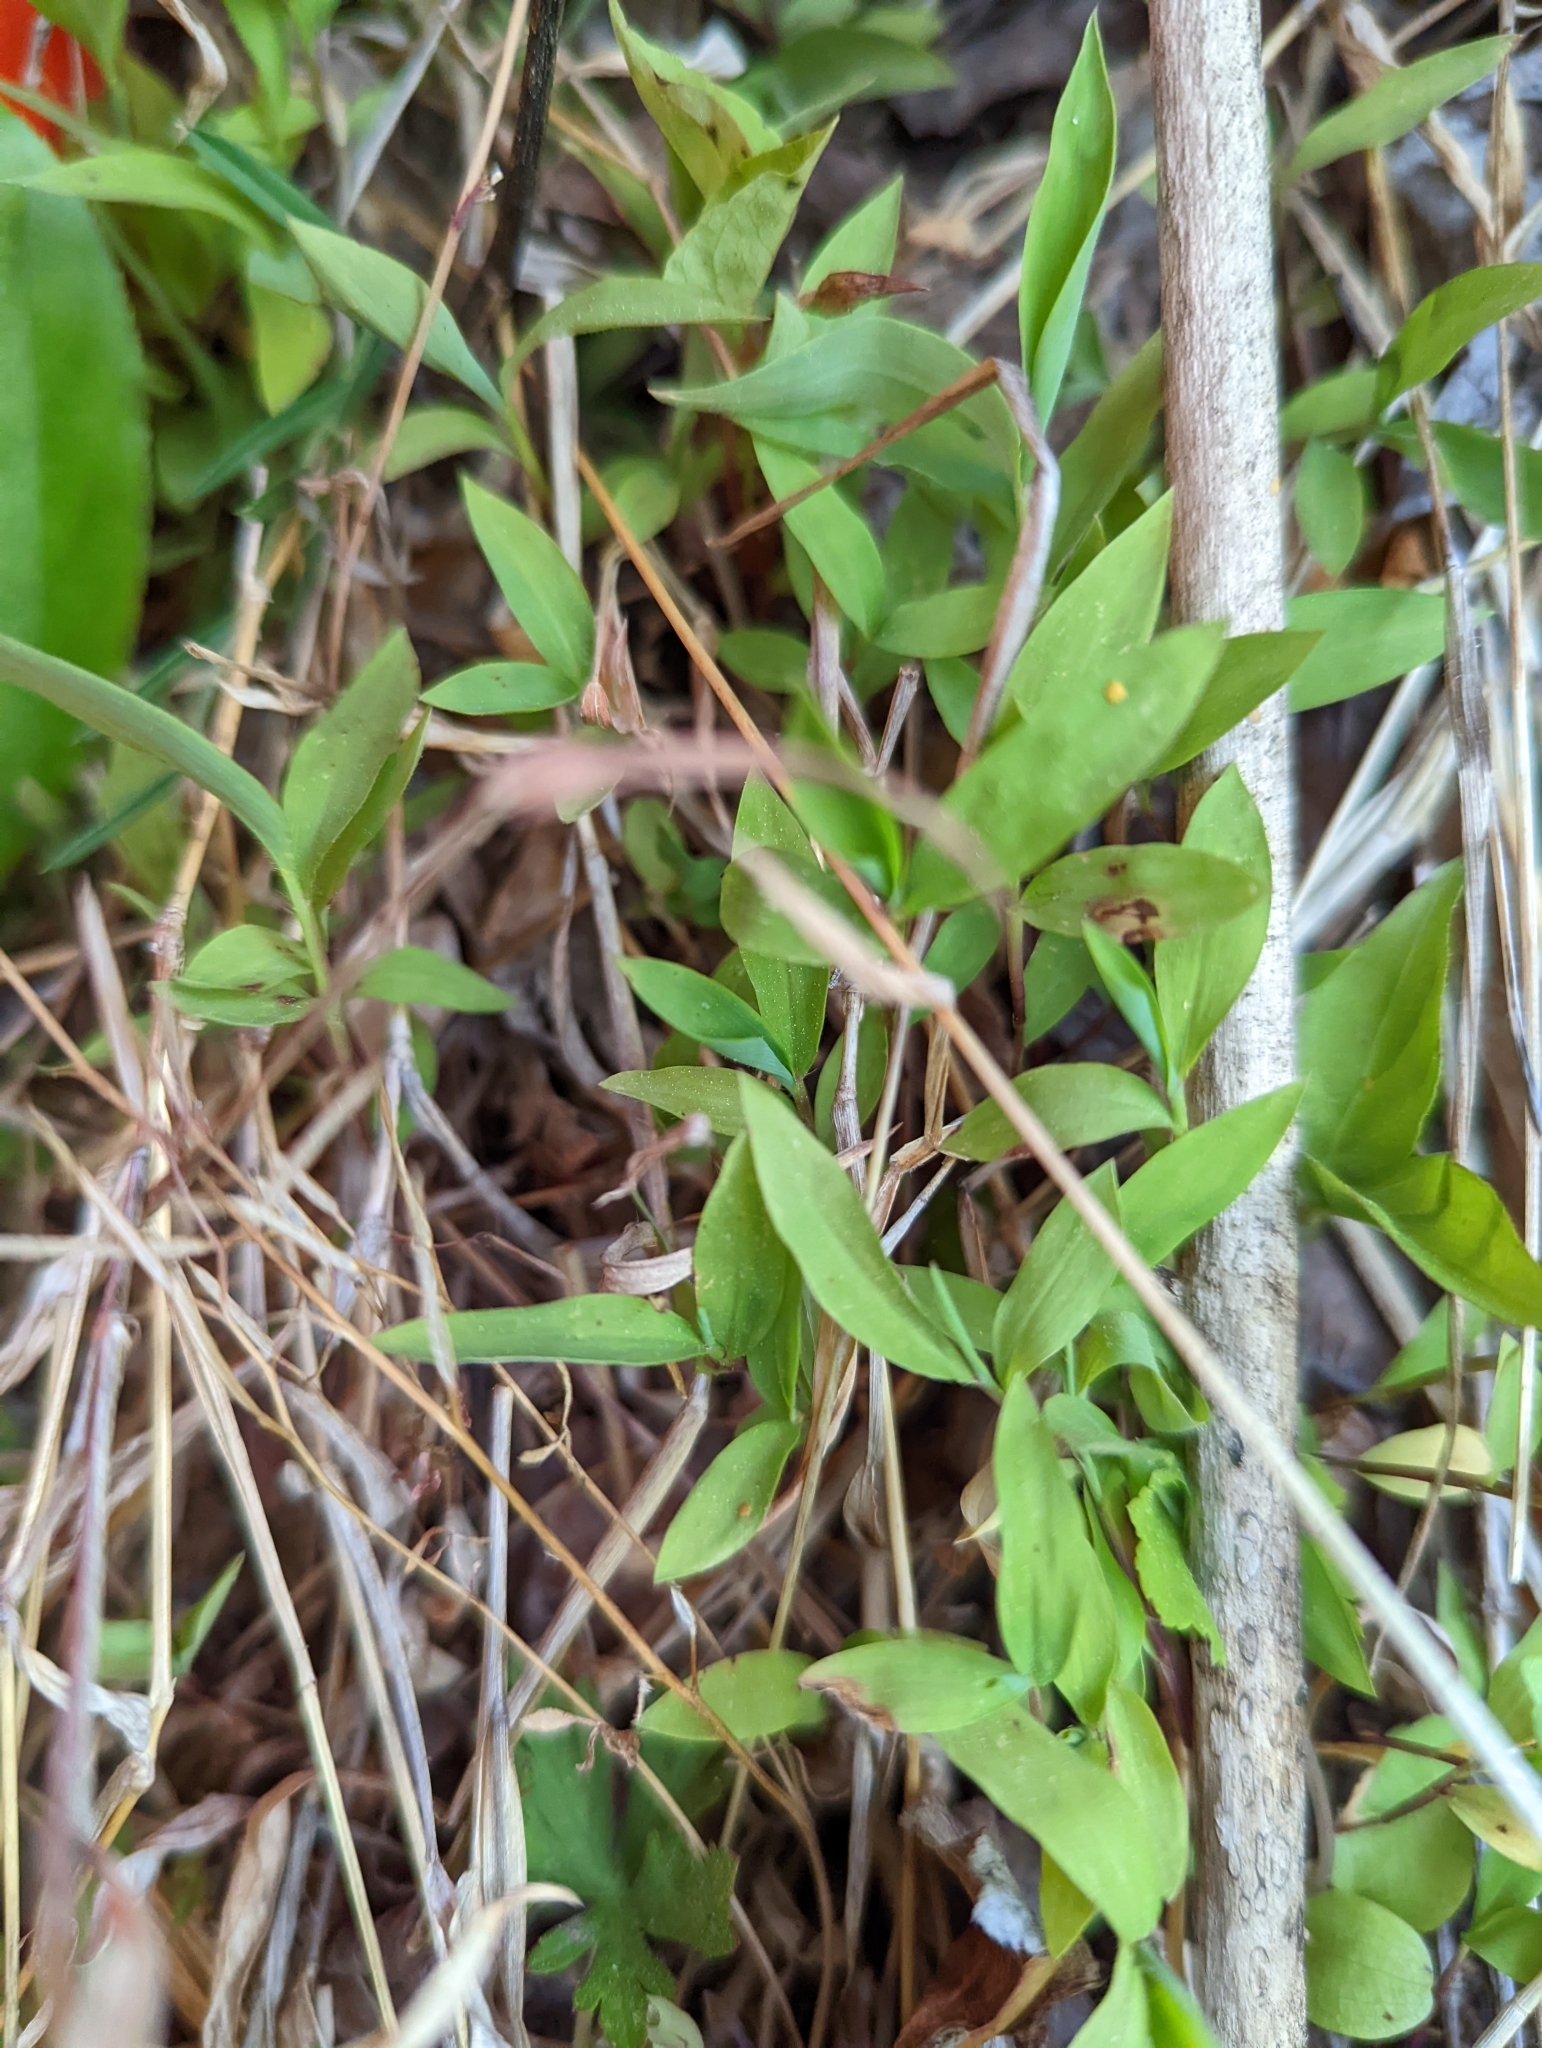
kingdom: Plantae
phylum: Tracheophyta
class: Liliopsida
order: Poales
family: Poaceae
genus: Microstegium
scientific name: Microstegium vimineum
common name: Japanese stiltgrass
